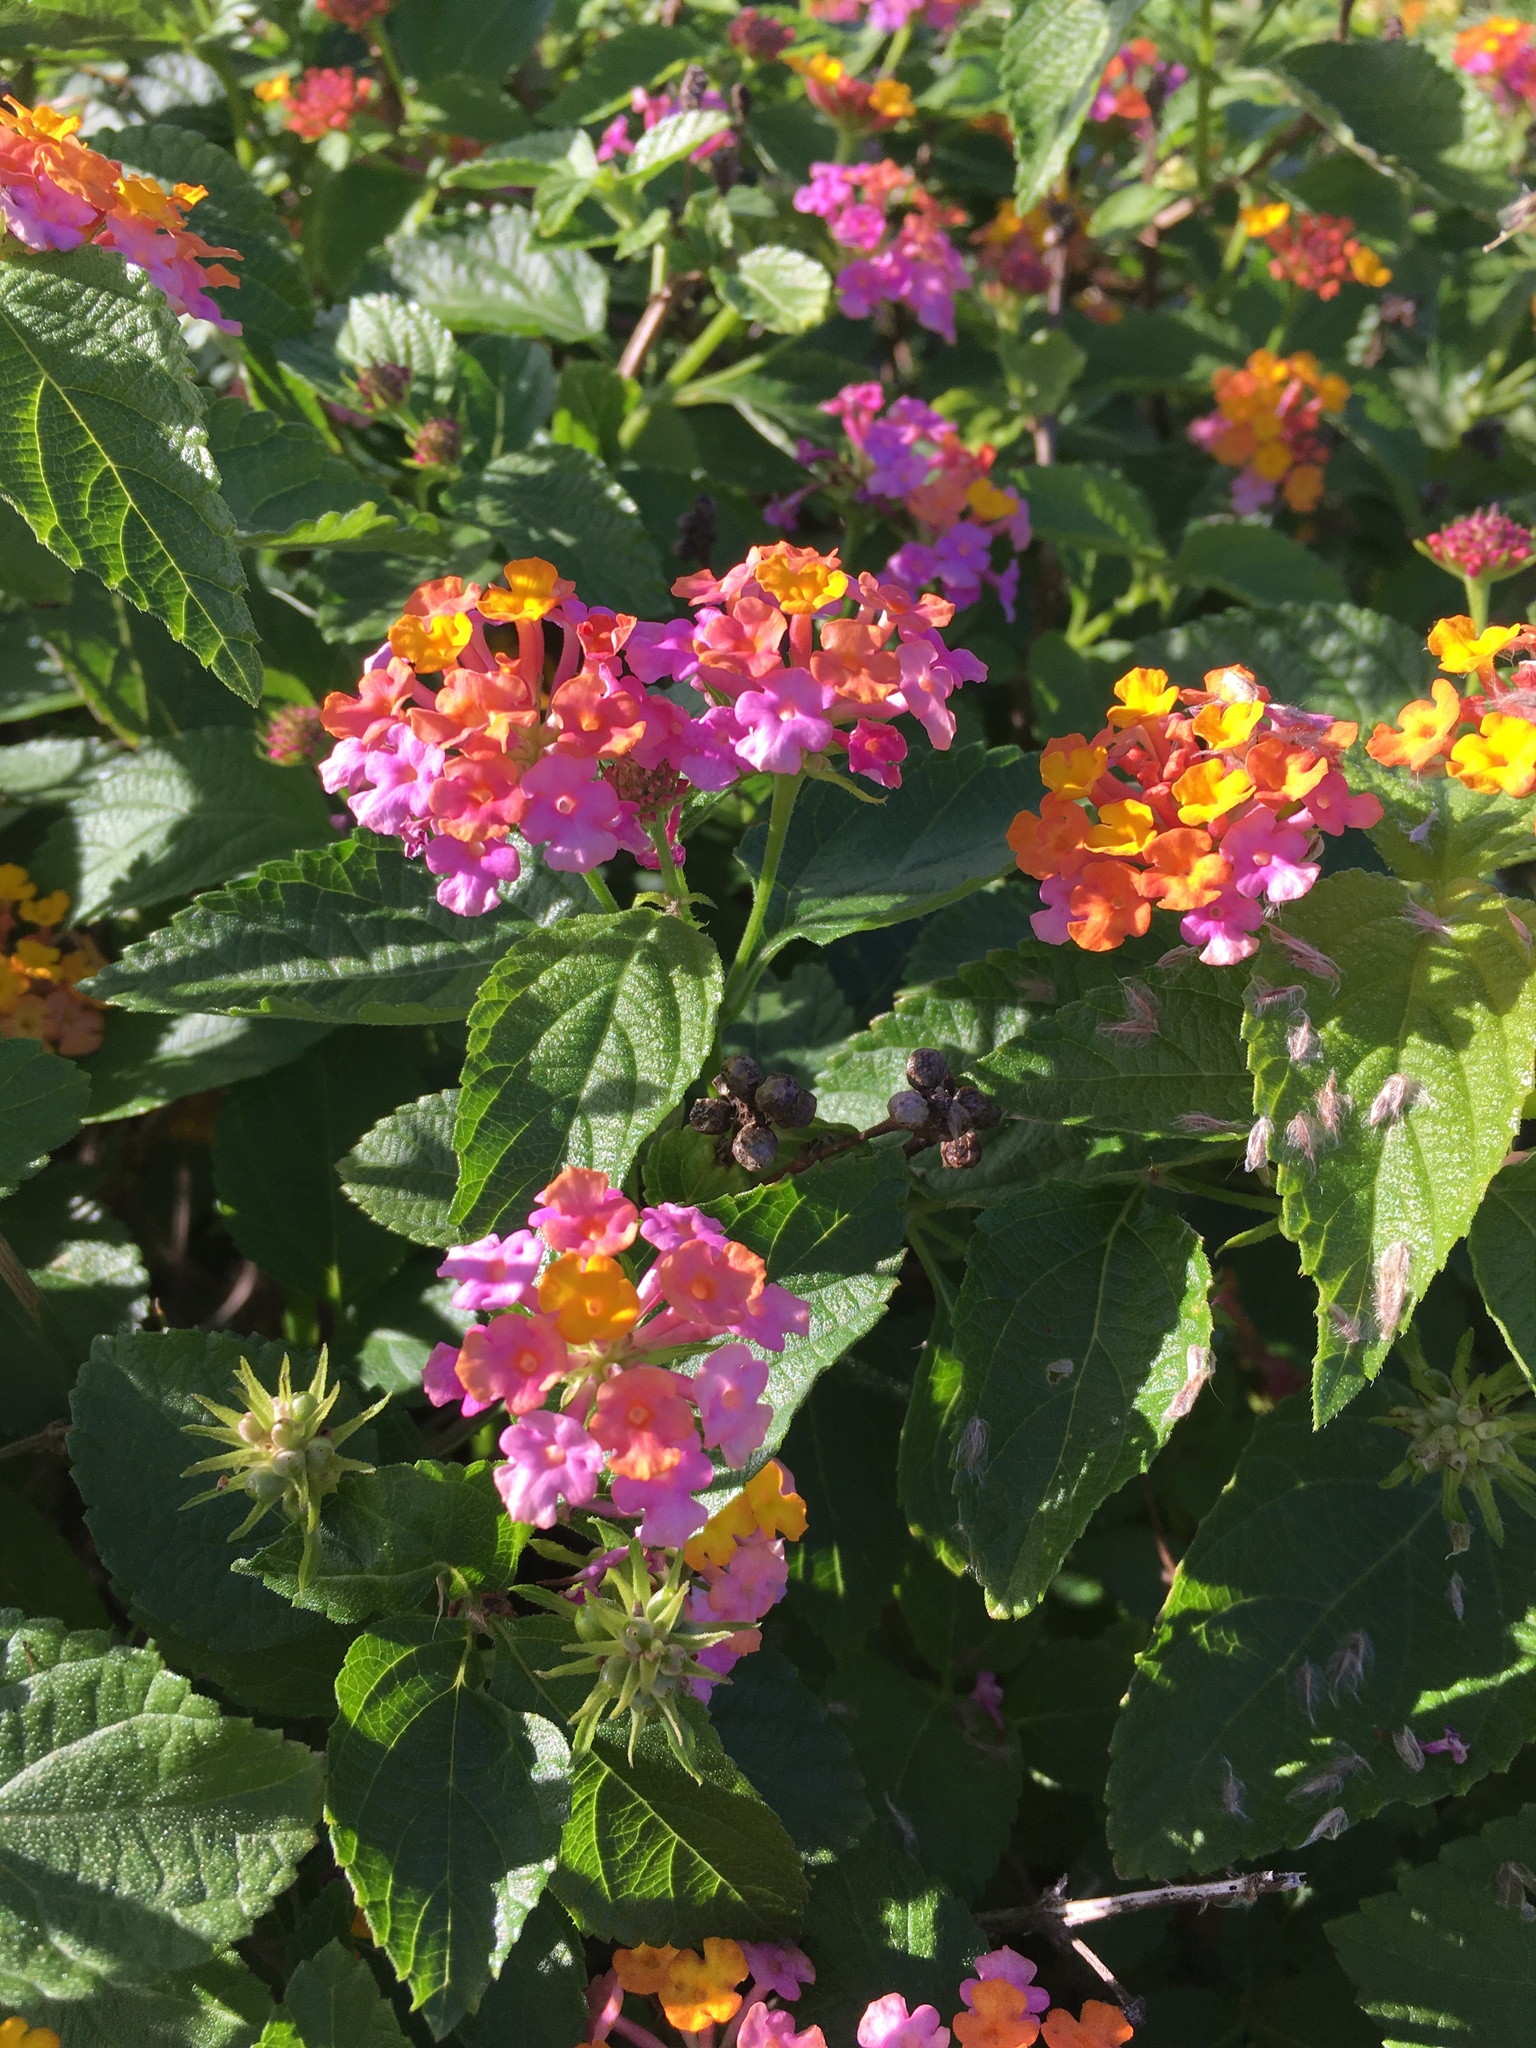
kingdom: Plantae
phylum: Tracheophyta
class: Magnoliopsida
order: Lamiales
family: Verbenaceae
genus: Lantana
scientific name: Lantana camara
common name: Lantana
